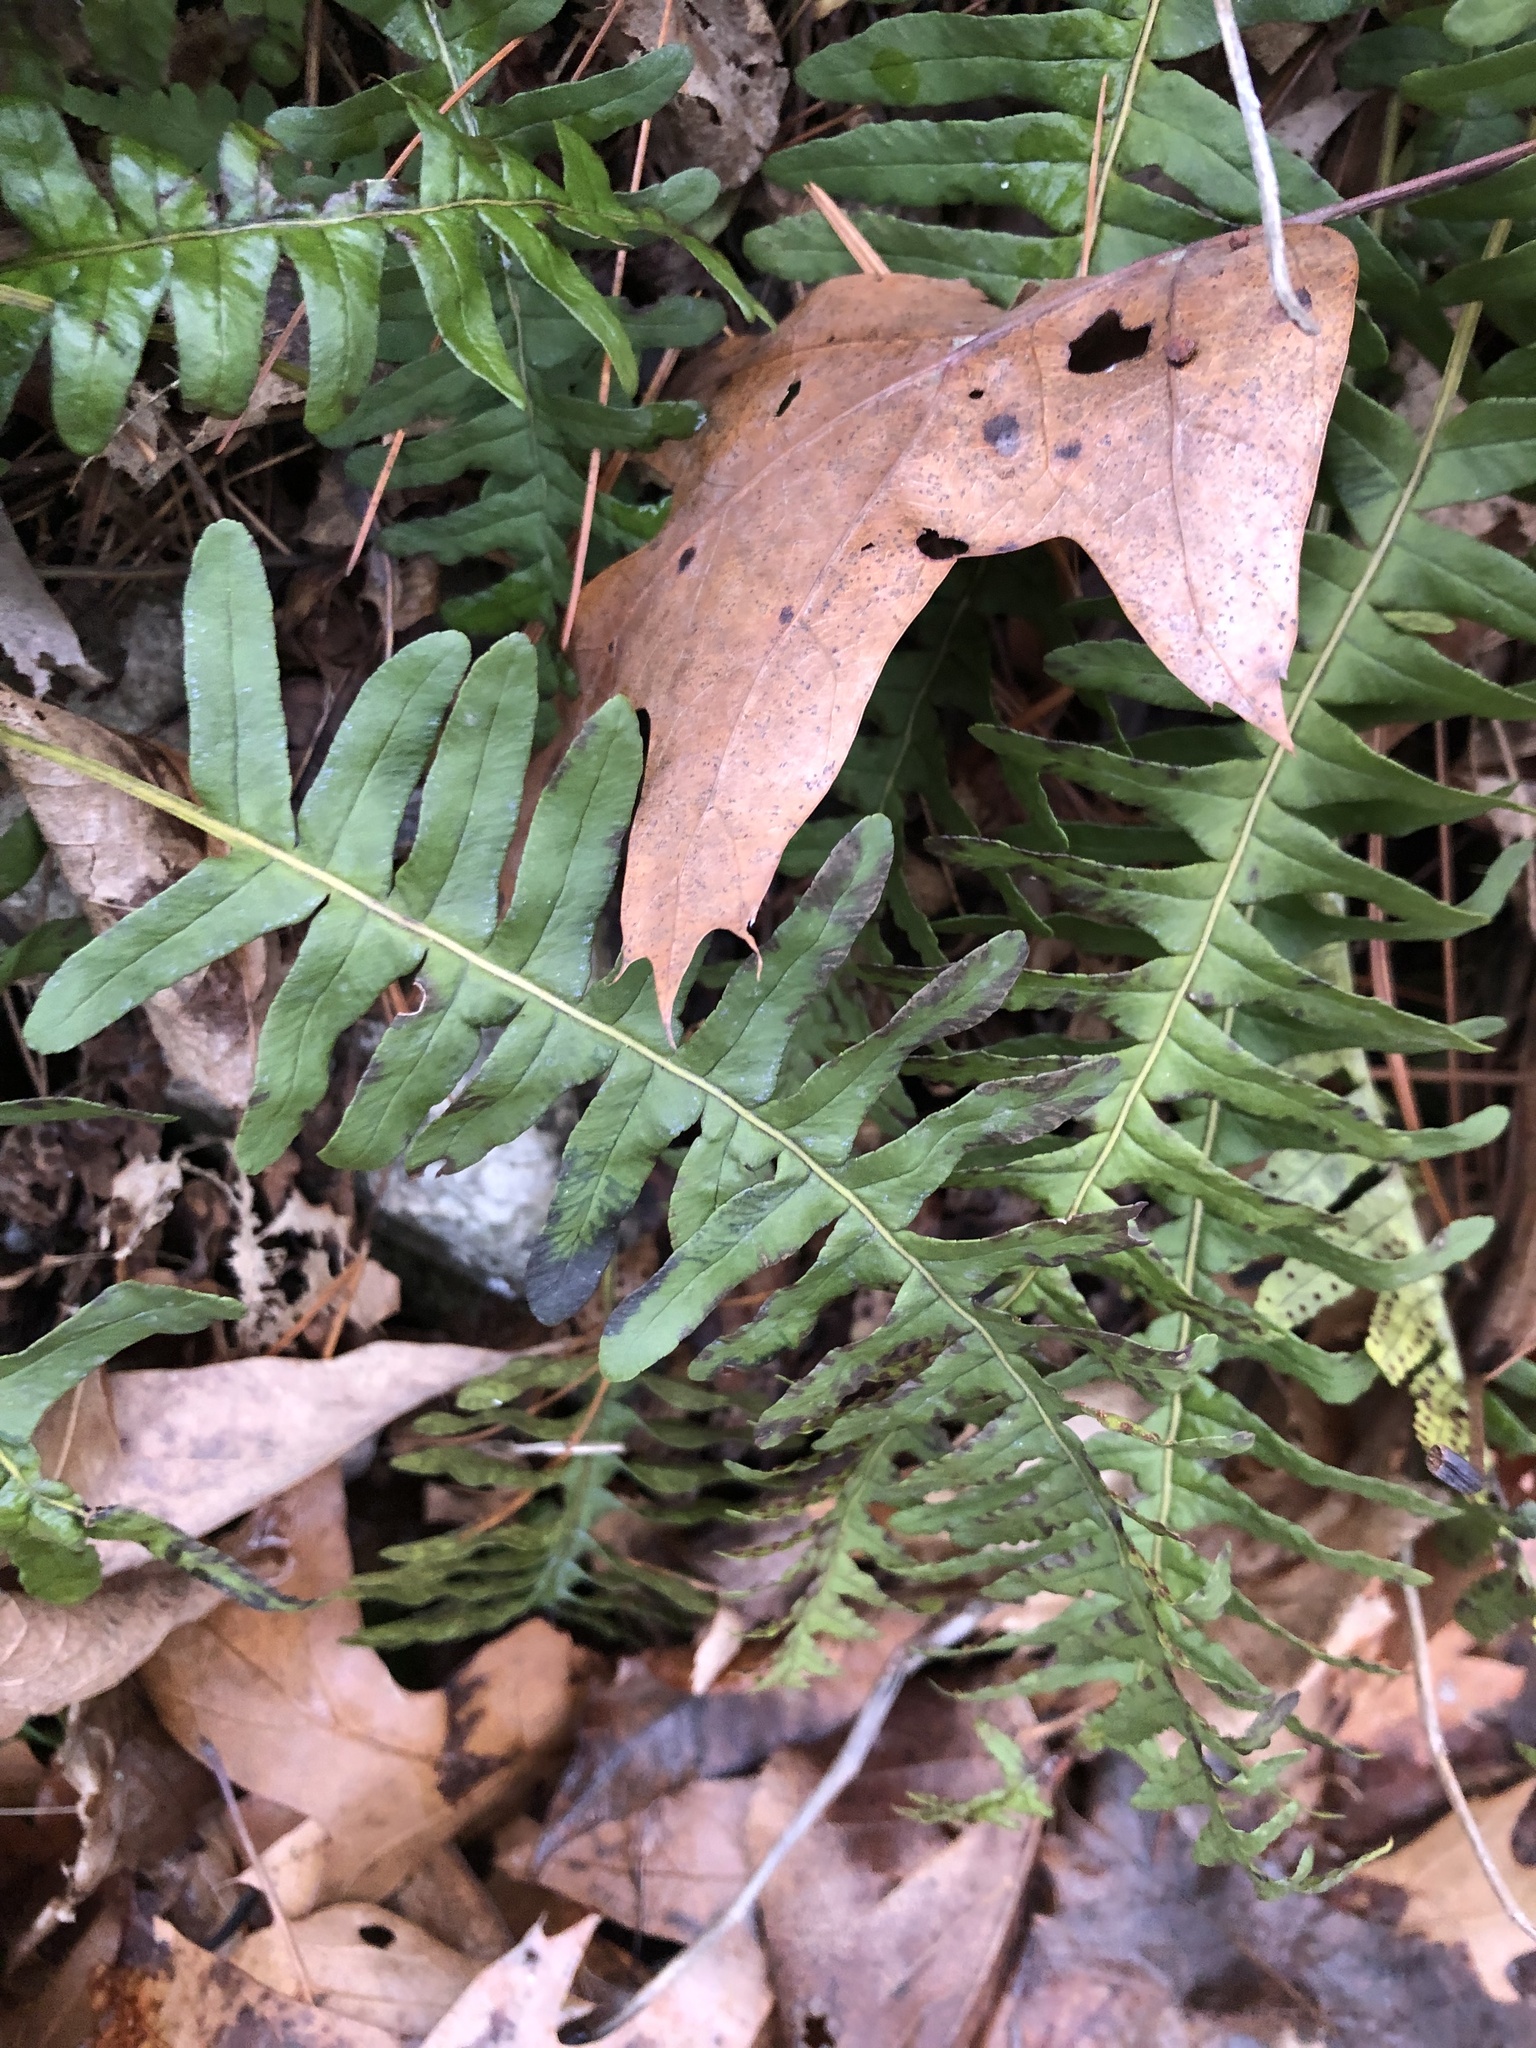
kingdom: Plantae
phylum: Tracheophyta
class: Polypodiopsida
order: Polypodiales
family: Polypodiaceae
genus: Polypodium
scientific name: Polypodium virginianum
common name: American wall fern
